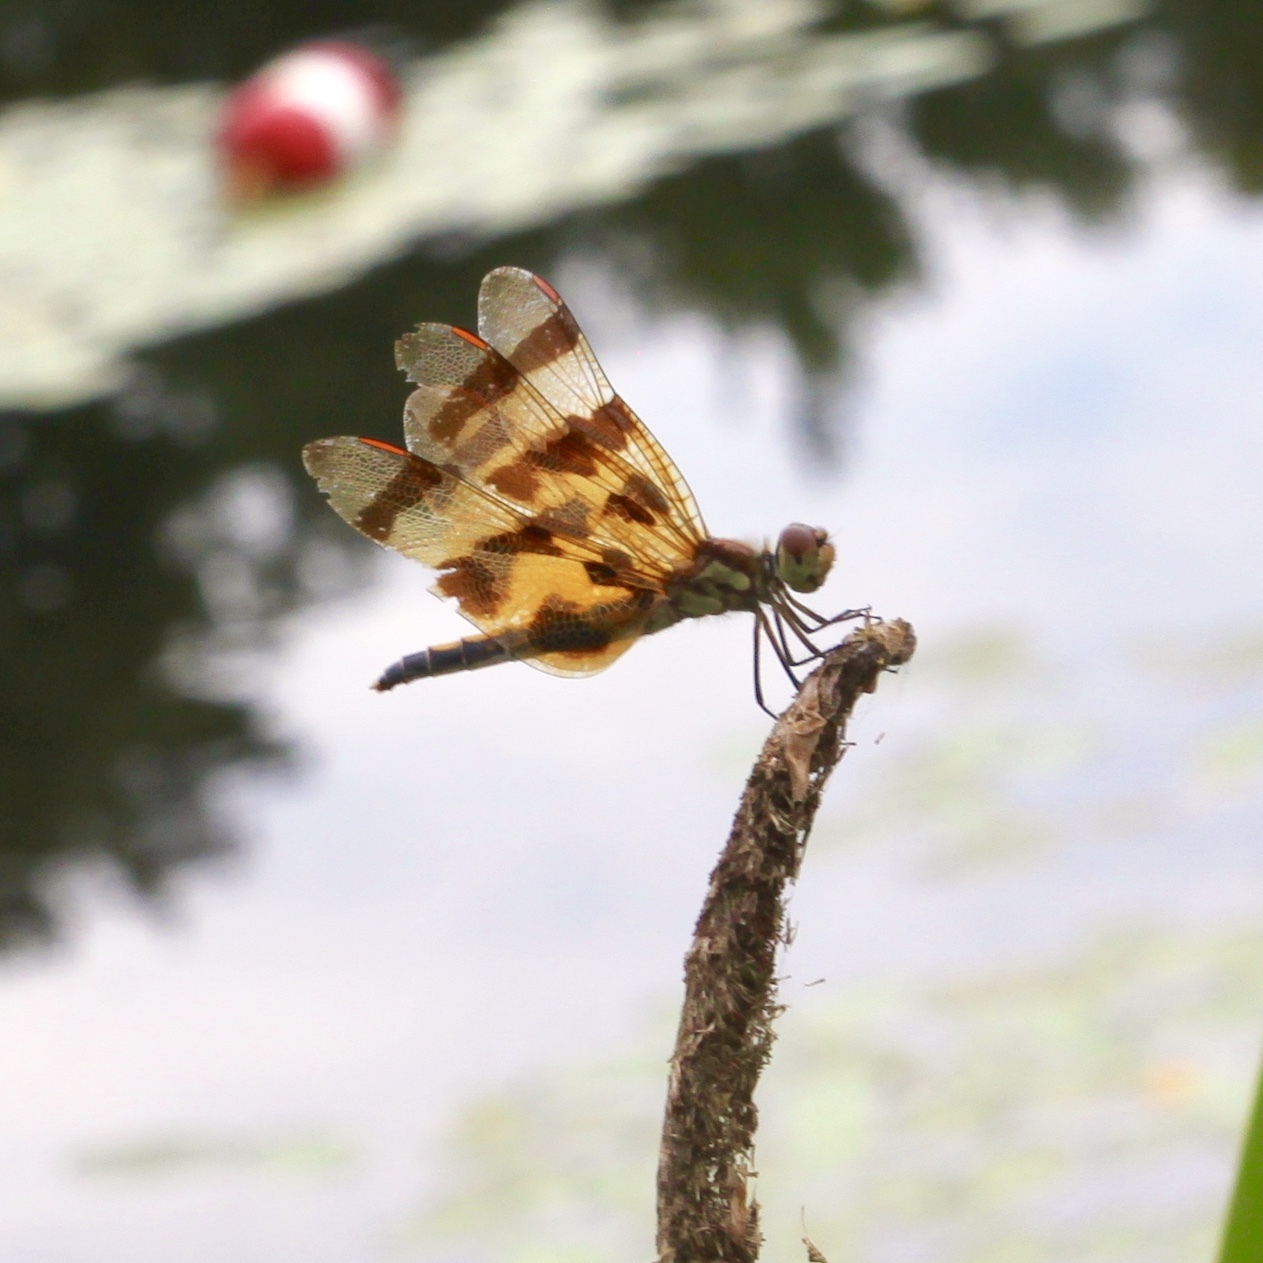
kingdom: Animalia
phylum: Arthropoda
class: Insecta
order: Odonata
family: Libellulidae
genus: Celithemis
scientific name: Celithemis eponina
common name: Halloween pennant
